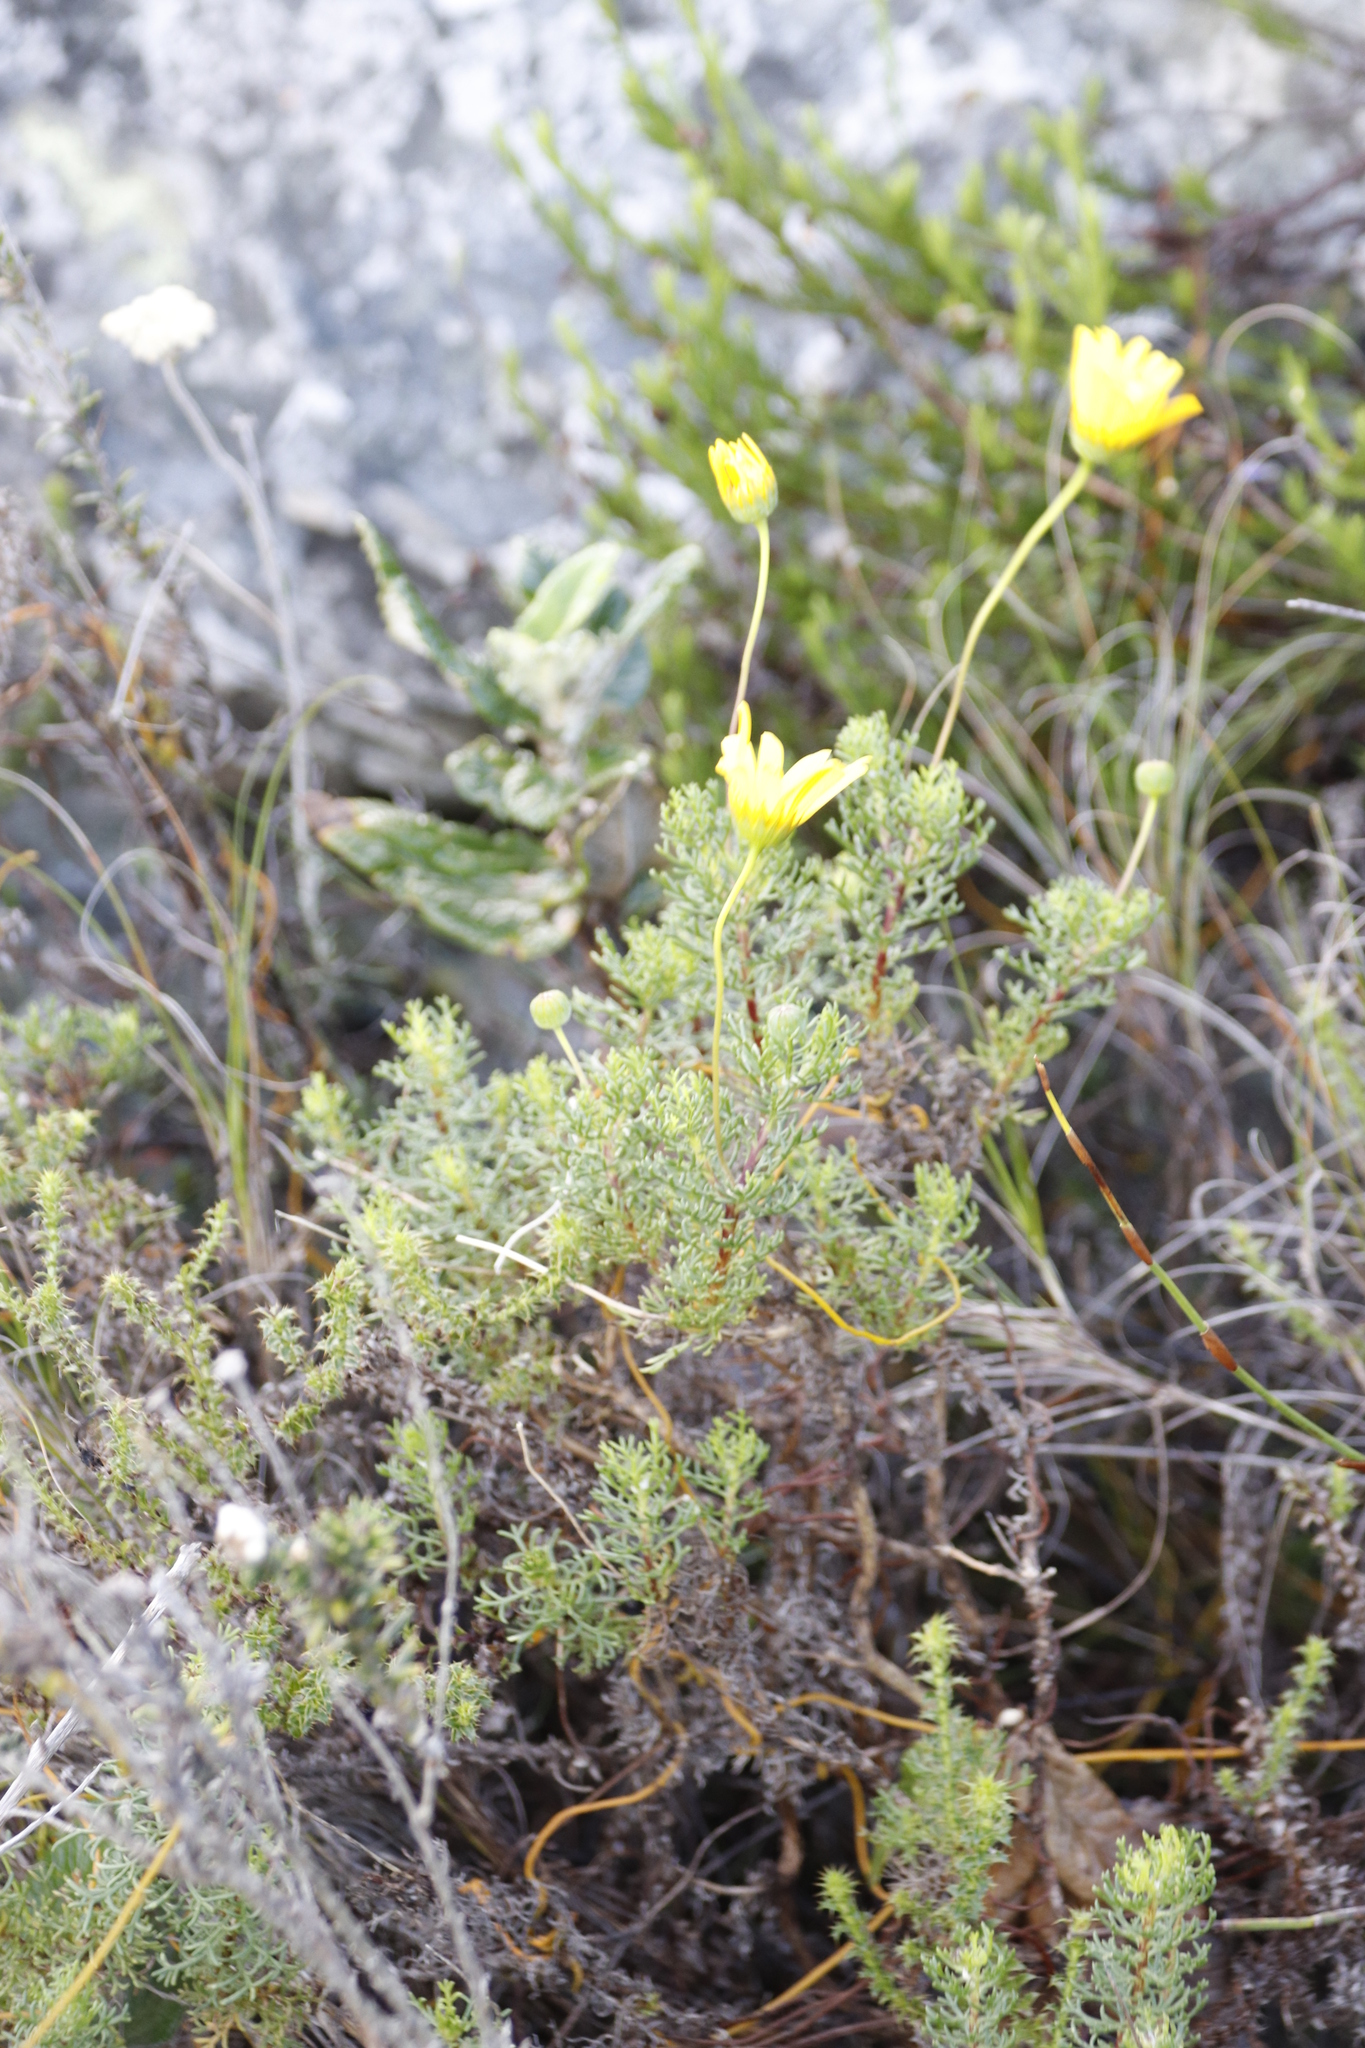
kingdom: Plantae
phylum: Tracheophyta
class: Magnoliopsida
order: Asterales
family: Asteraceae
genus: Euryops
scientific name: Euryops abrotanifolius
